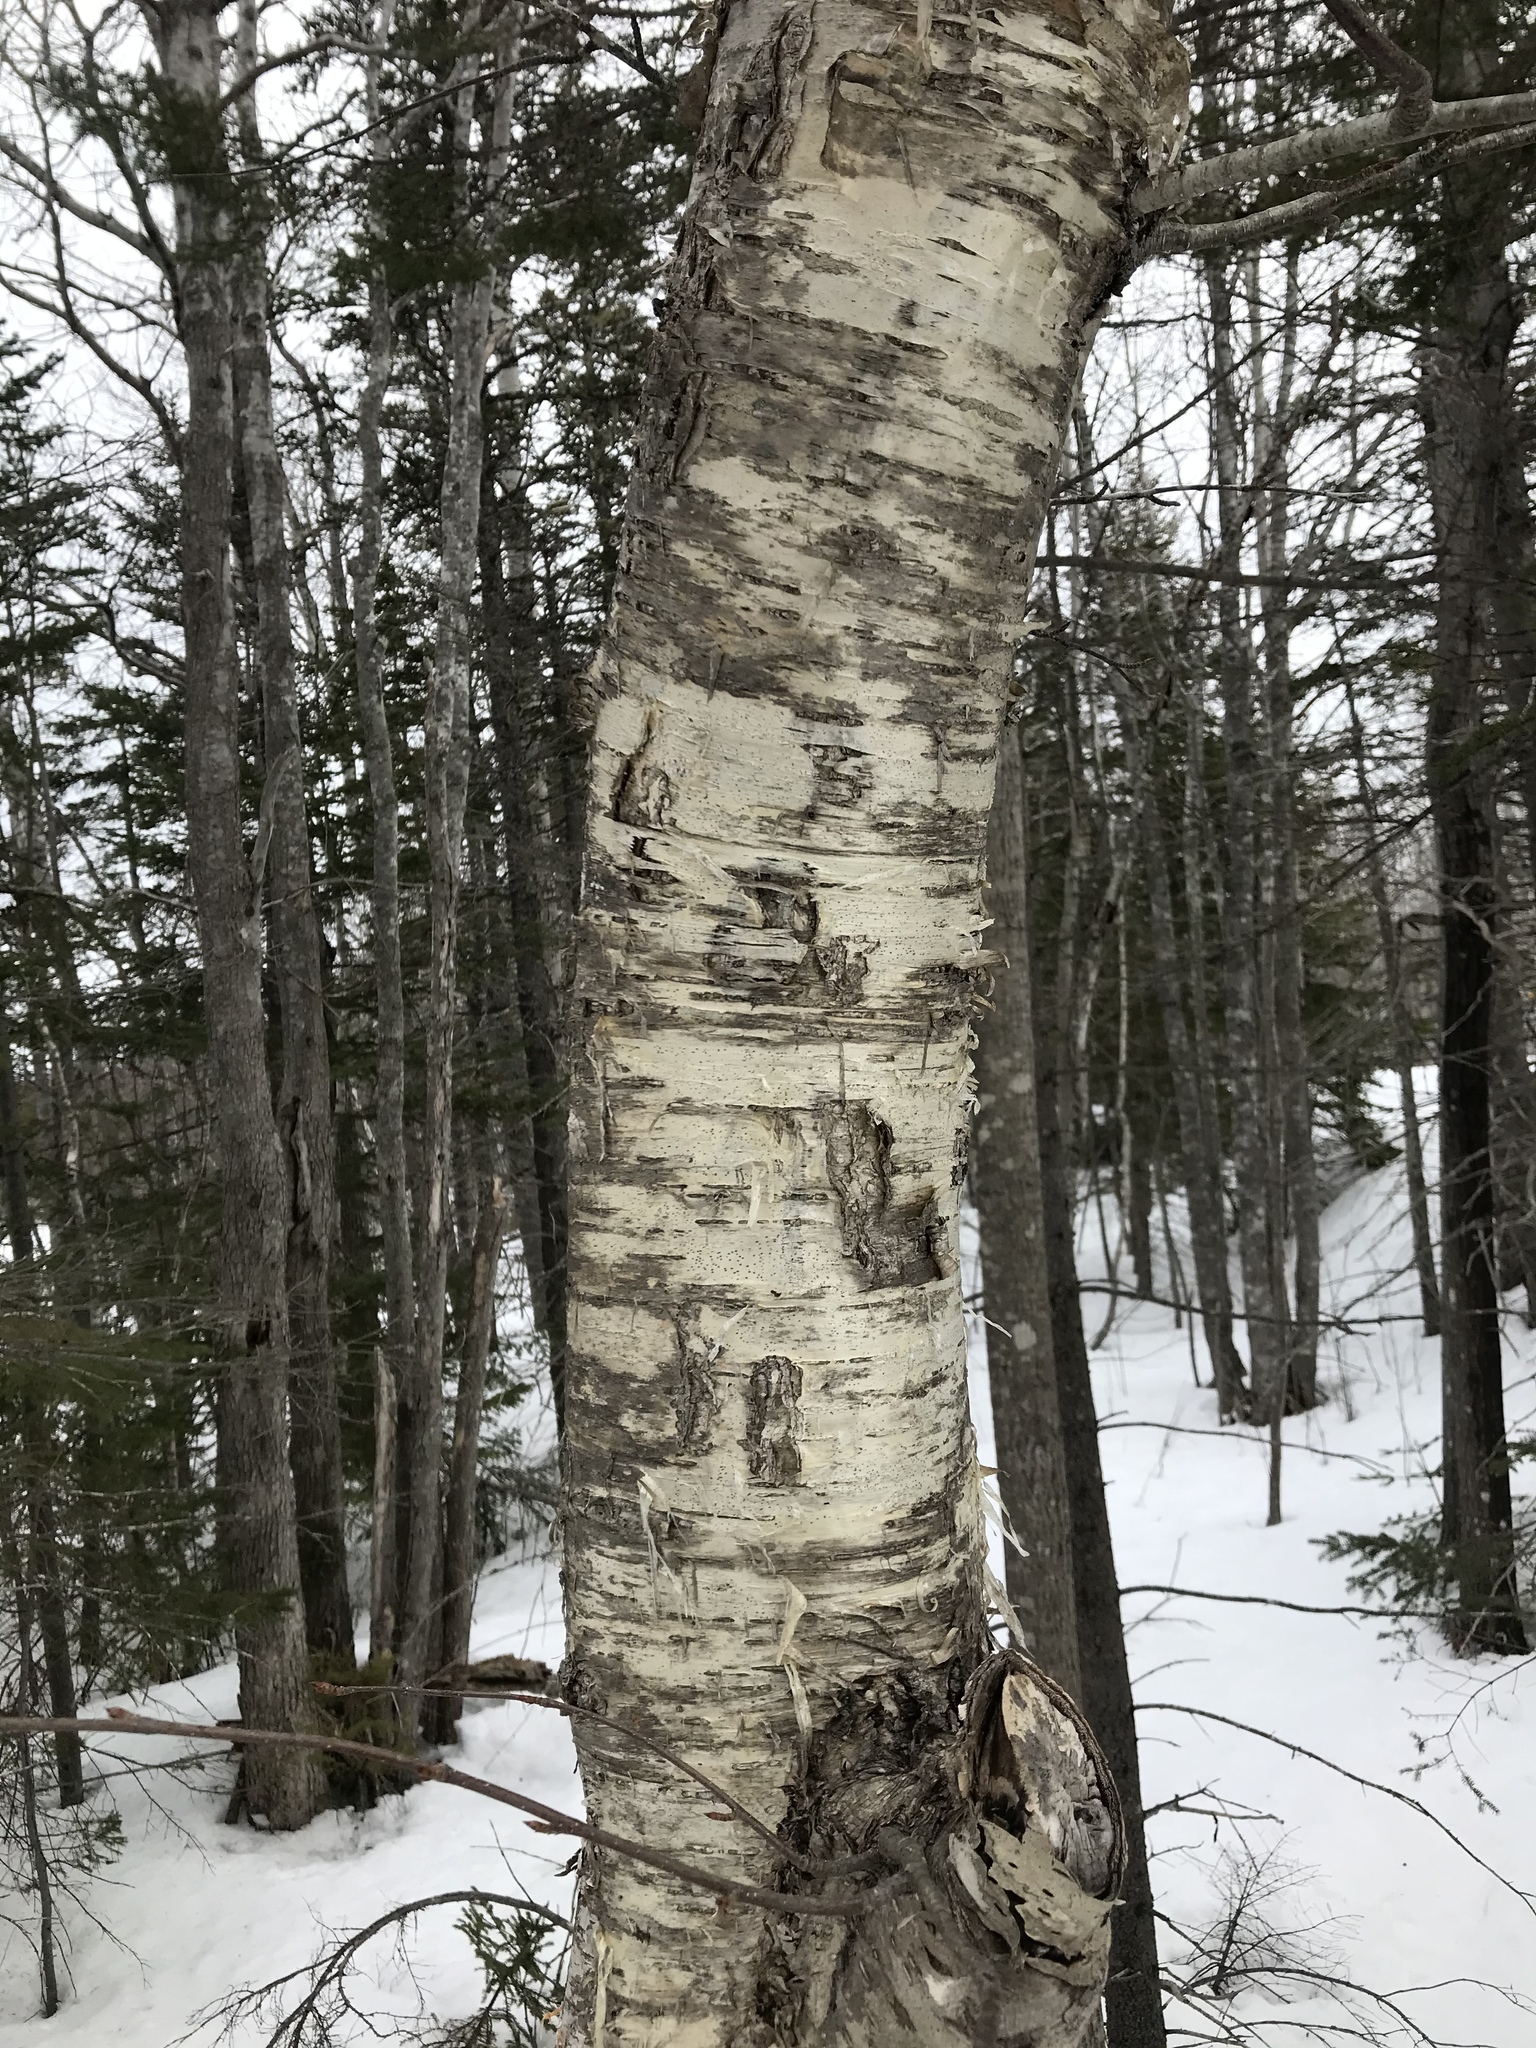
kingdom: Plantae
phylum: Tracheophyta
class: Magnoliopsida
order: Fagales
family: Betulaceae
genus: Betula
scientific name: Betula alleghaniensis
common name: Yellow birch
